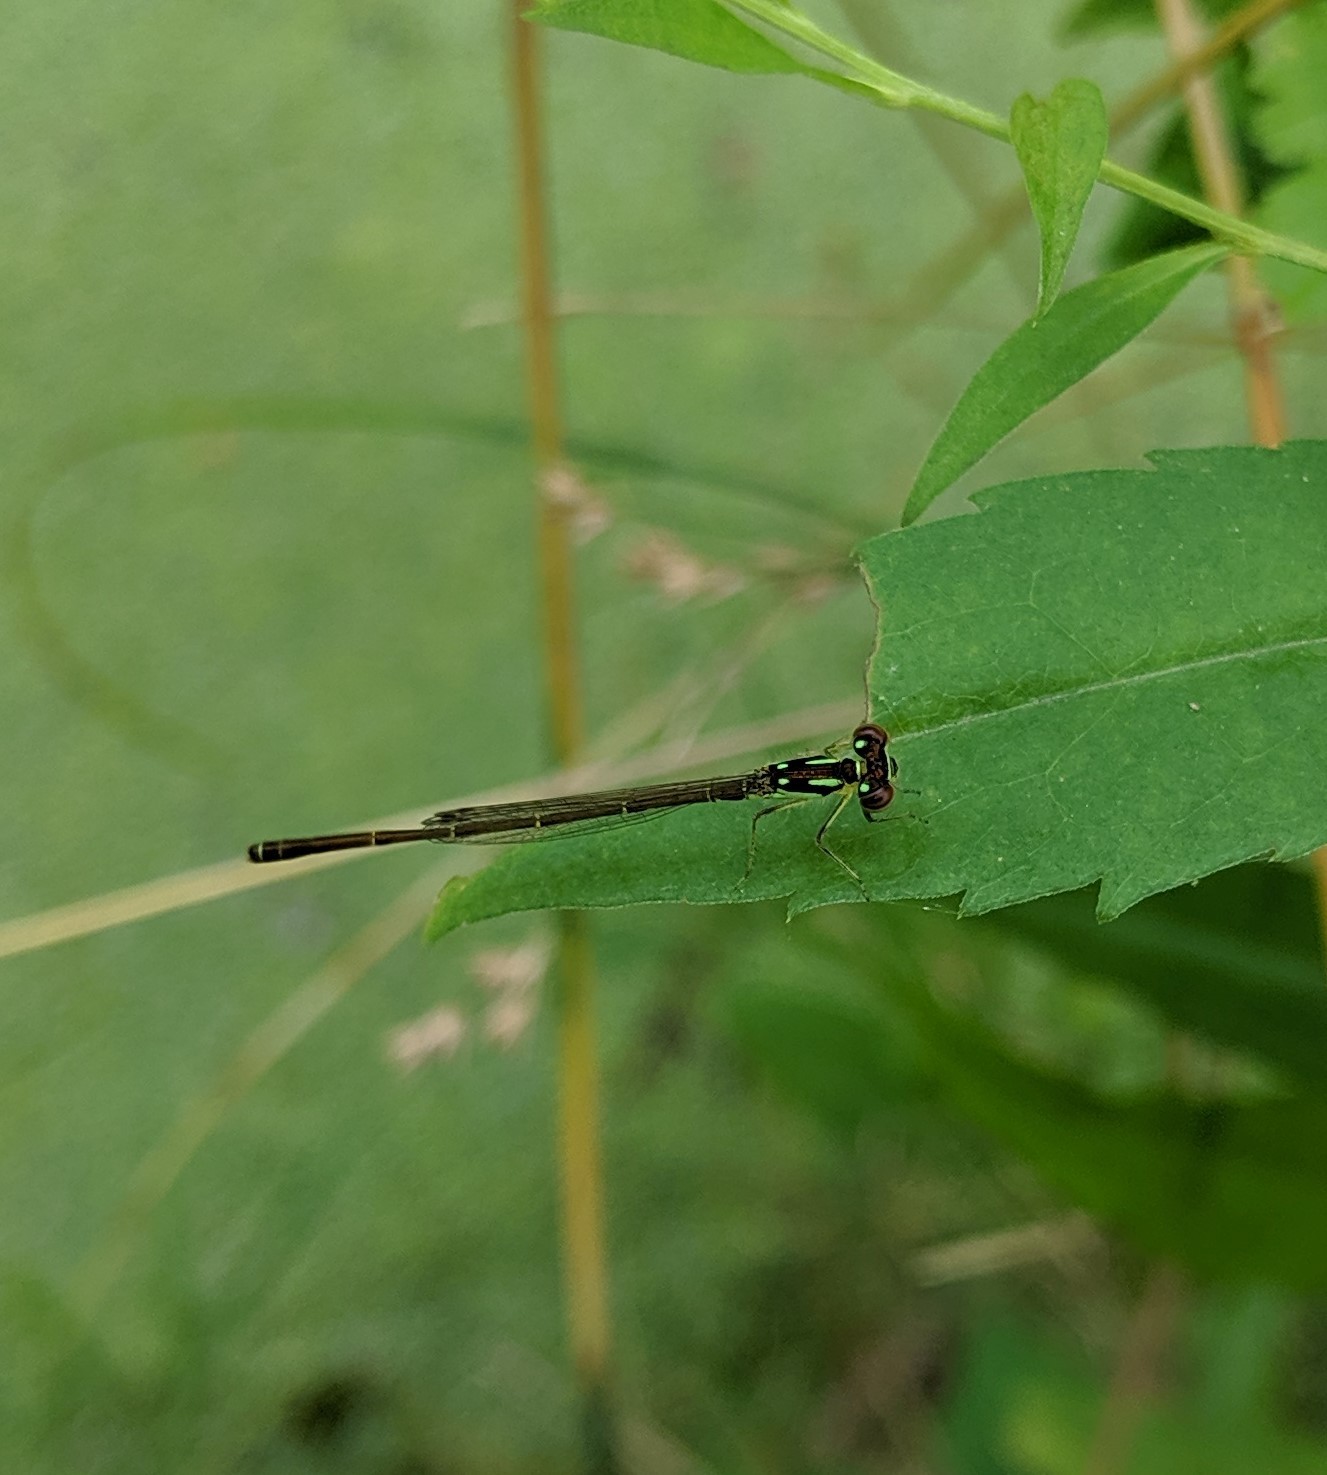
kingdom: Animalia
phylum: Arthropoda
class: Insecta
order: Odonata
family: Coenagrionidae
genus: Ischnura
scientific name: Ischnura posita
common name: Fragile forktail
